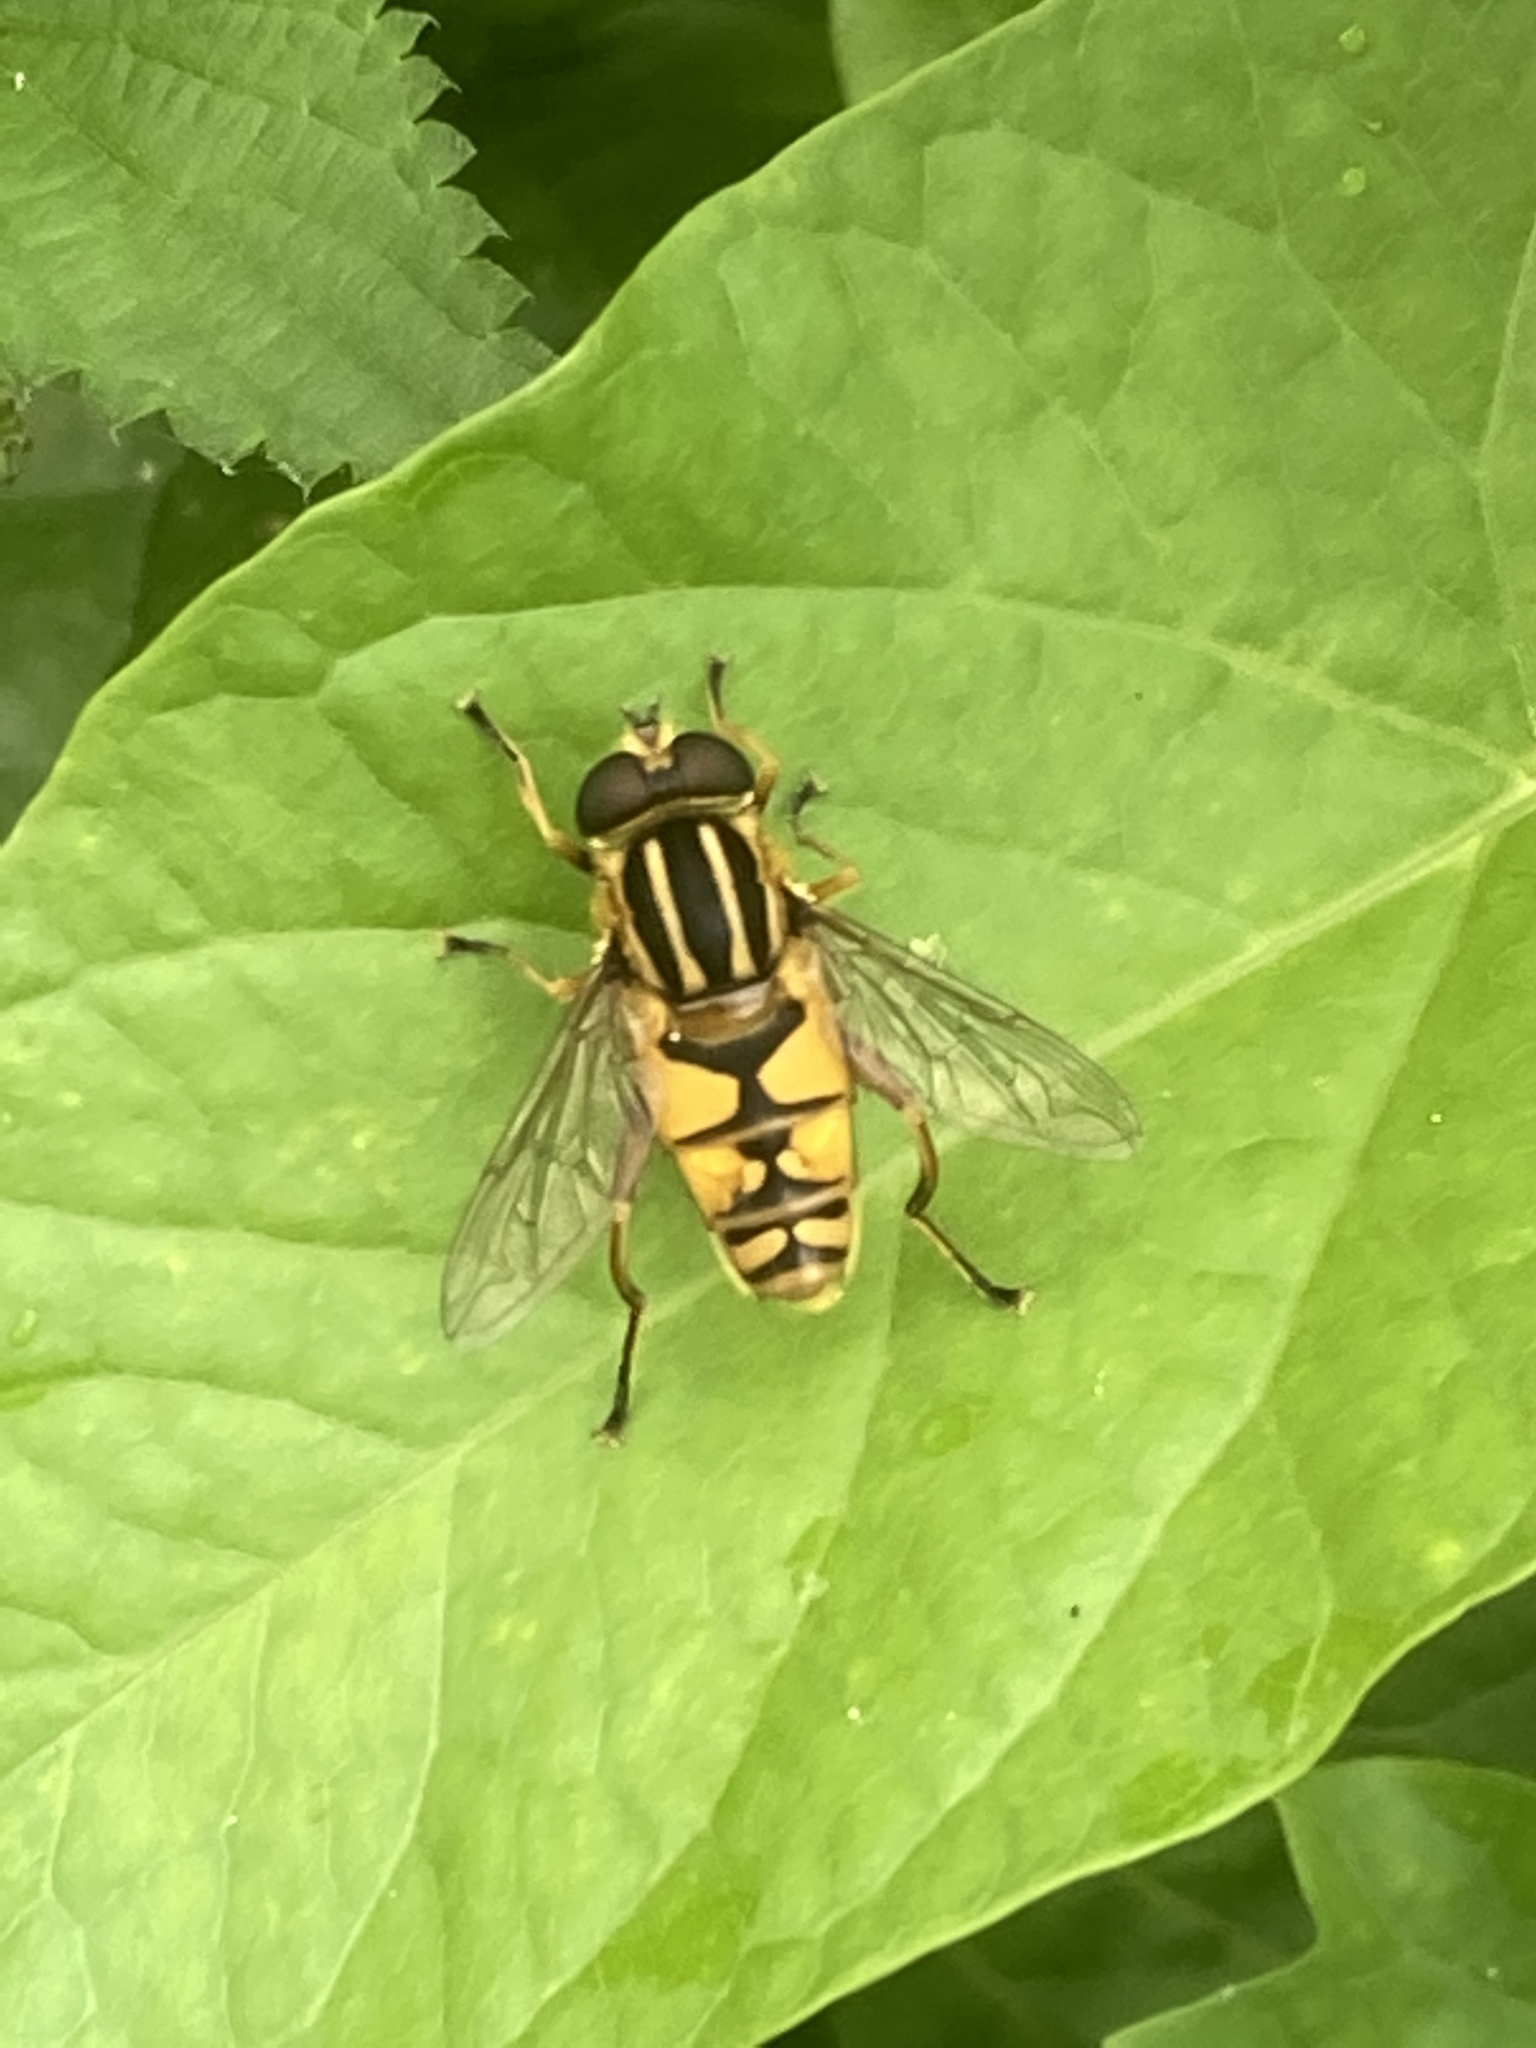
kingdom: Animalia
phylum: Arthropoda
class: Insecta
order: Diptera
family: Syrphidae
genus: Helophilus
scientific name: Helophilus pendulus
